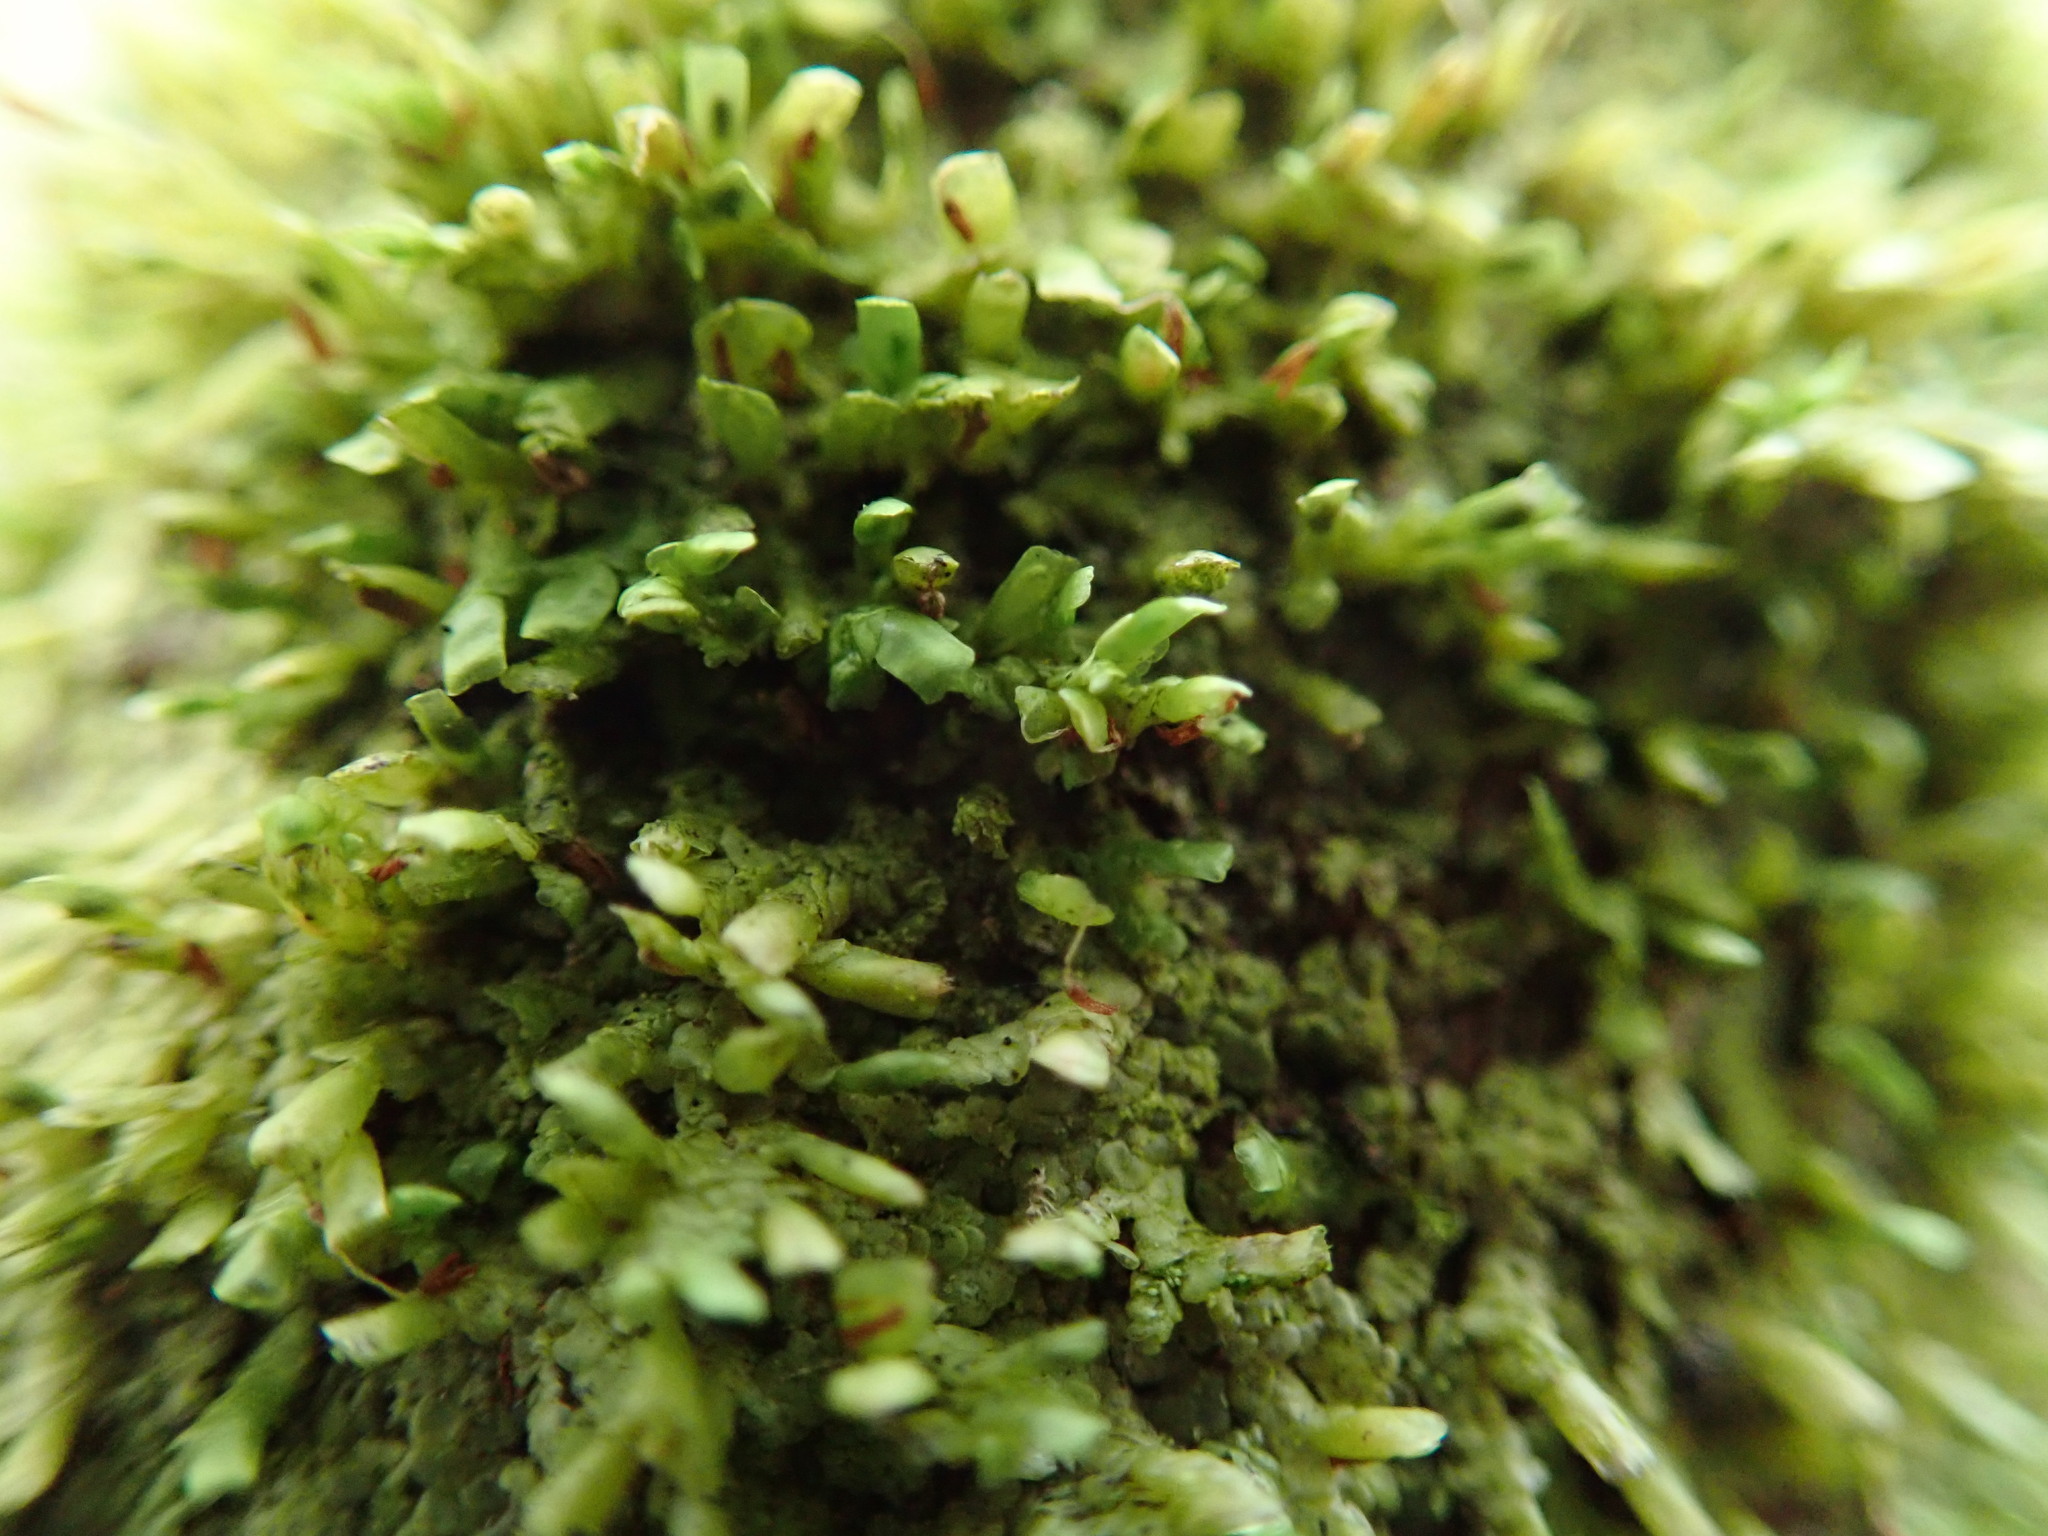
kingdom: Plantae
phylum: Marchantiophyta
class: Jungermanniopsida
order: Porellales
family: Radulaceae
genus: Radula
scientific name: Radula complanata
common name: Flat-leaved scalewort
